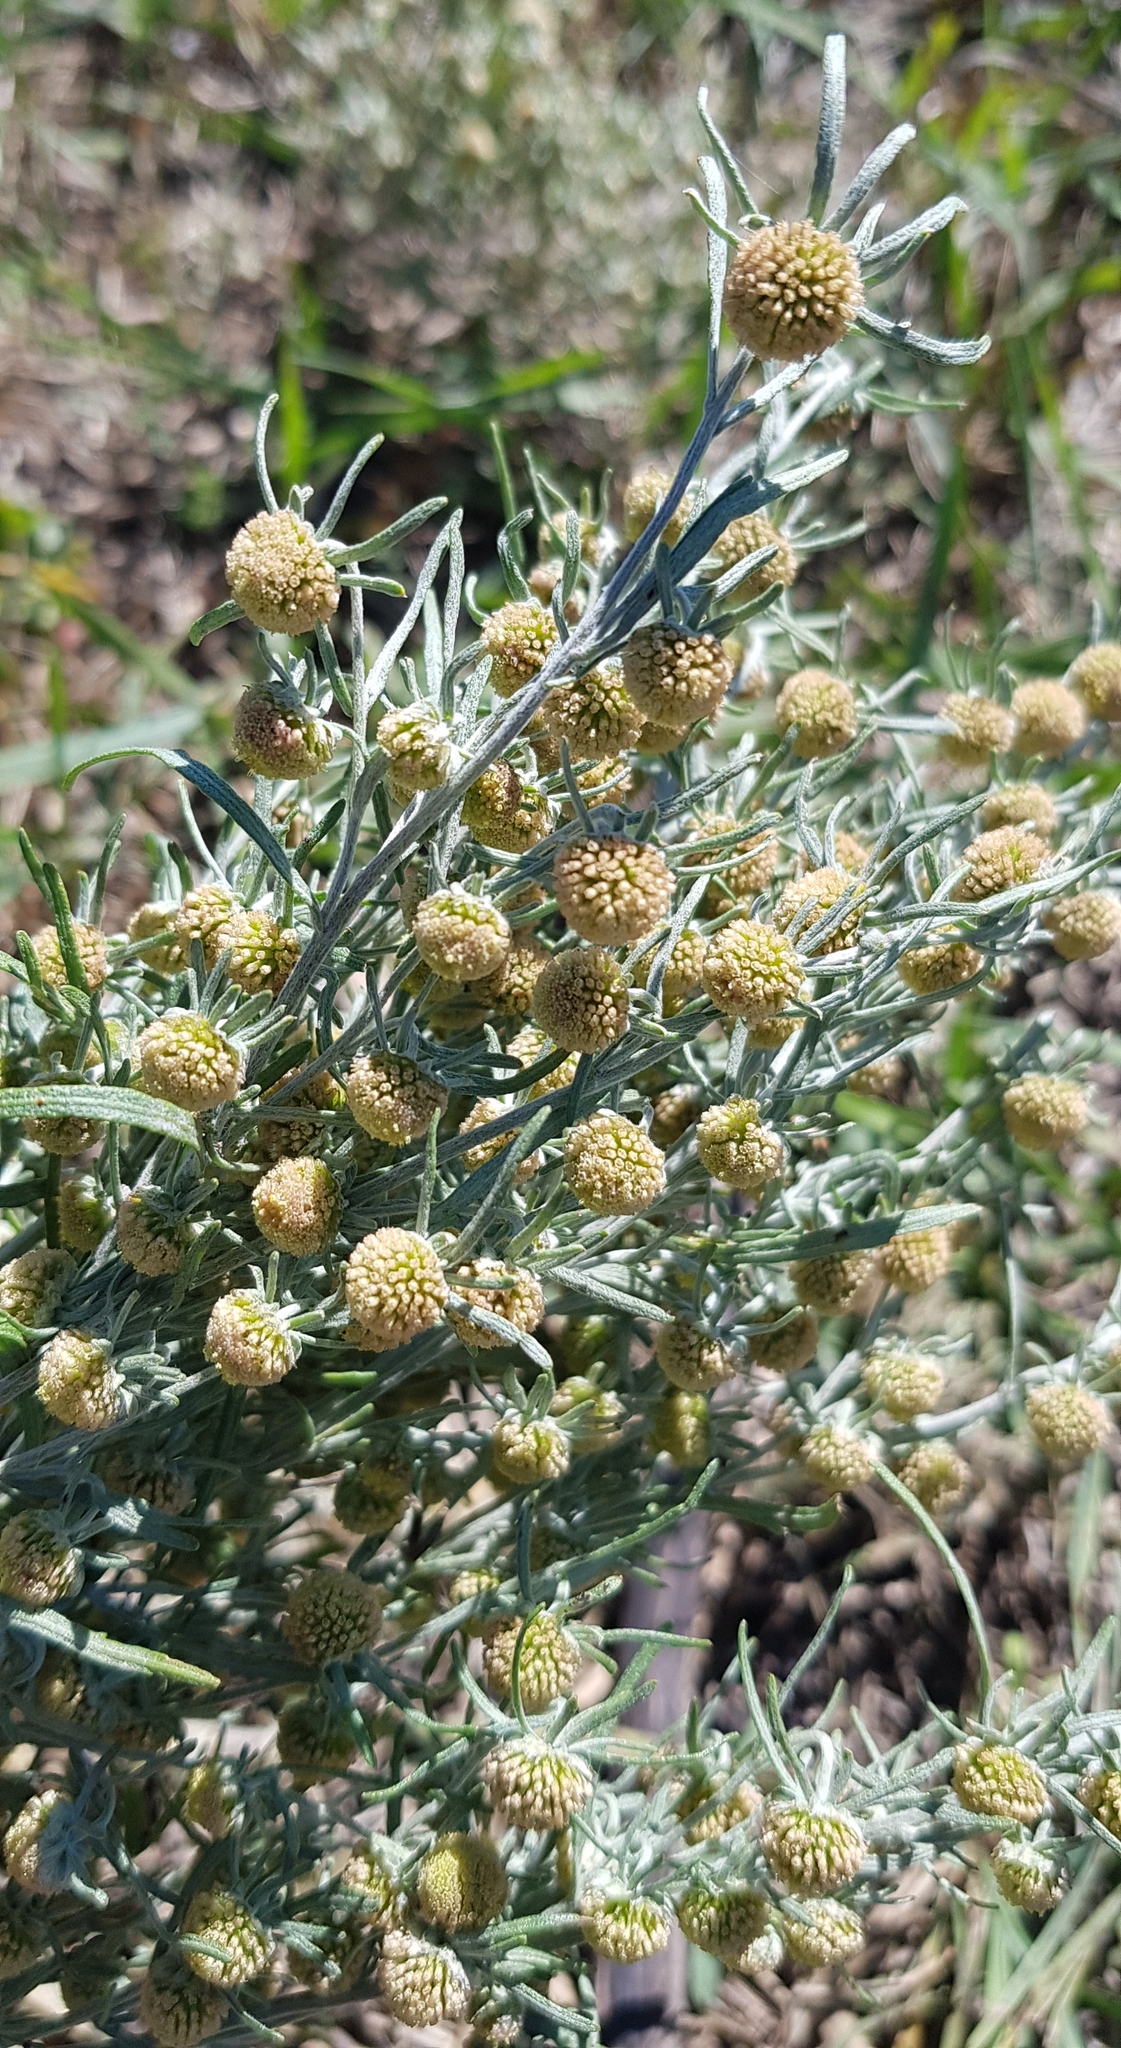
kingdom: Plantae
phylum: Tracheophyta
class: Magnoliopsida
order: Asterales
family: Asteraceae
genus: Artemisia
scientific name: Artemisia macrocephala
